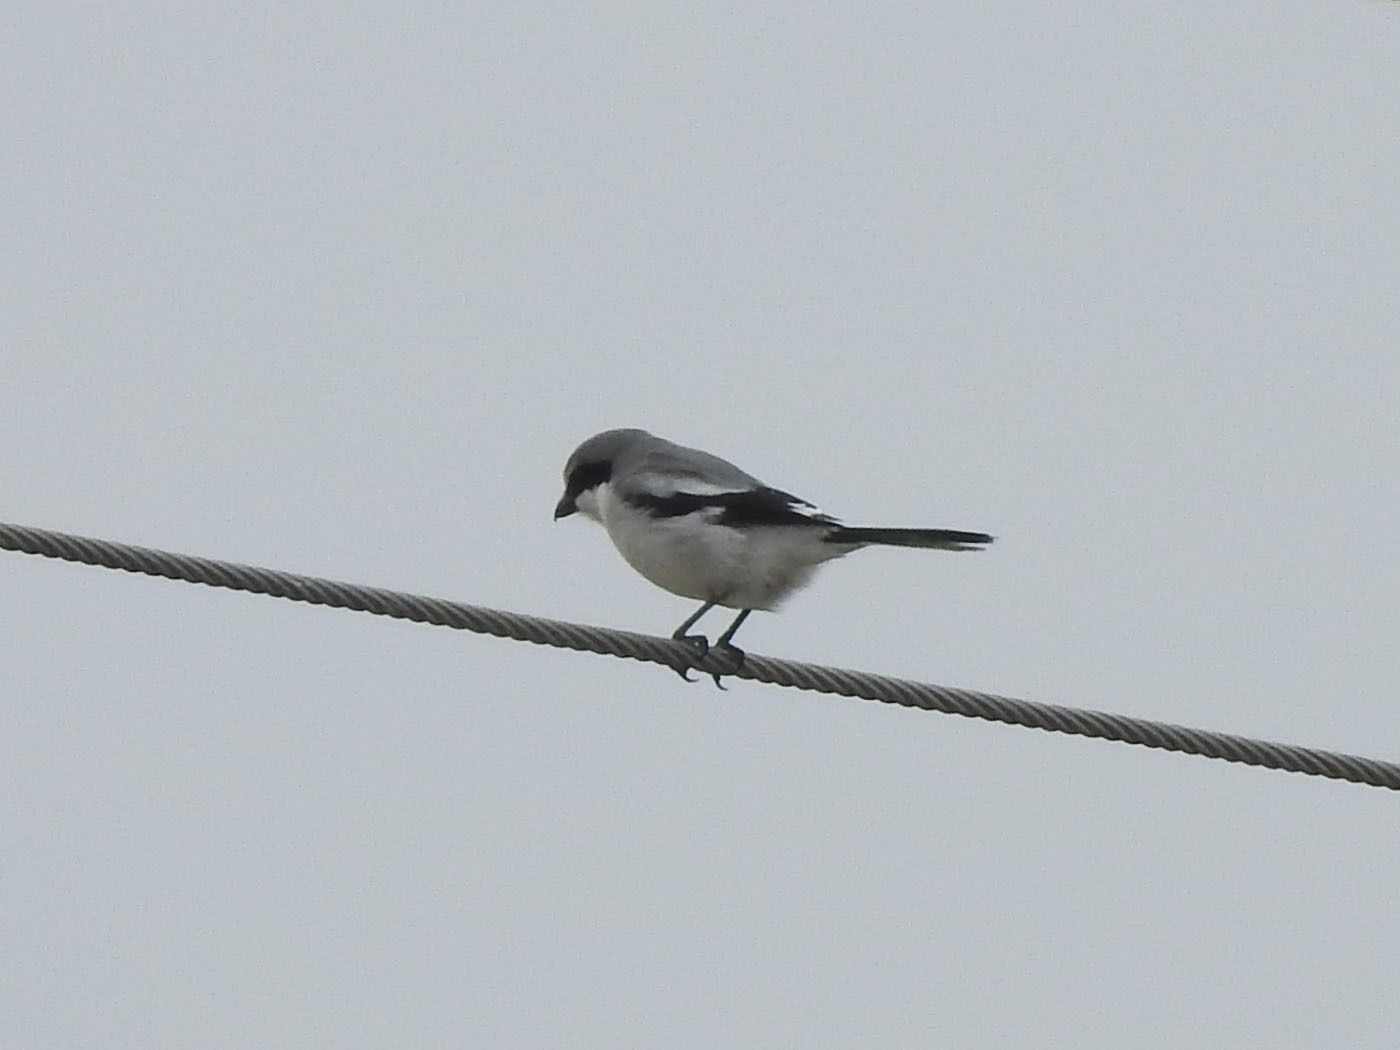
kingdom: Animalia
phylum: Chordata
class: Aves
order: Passeriformes
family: Laniidae
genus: Lanius
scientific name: Lanius ludovicianus
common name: Loggerhead shrike
